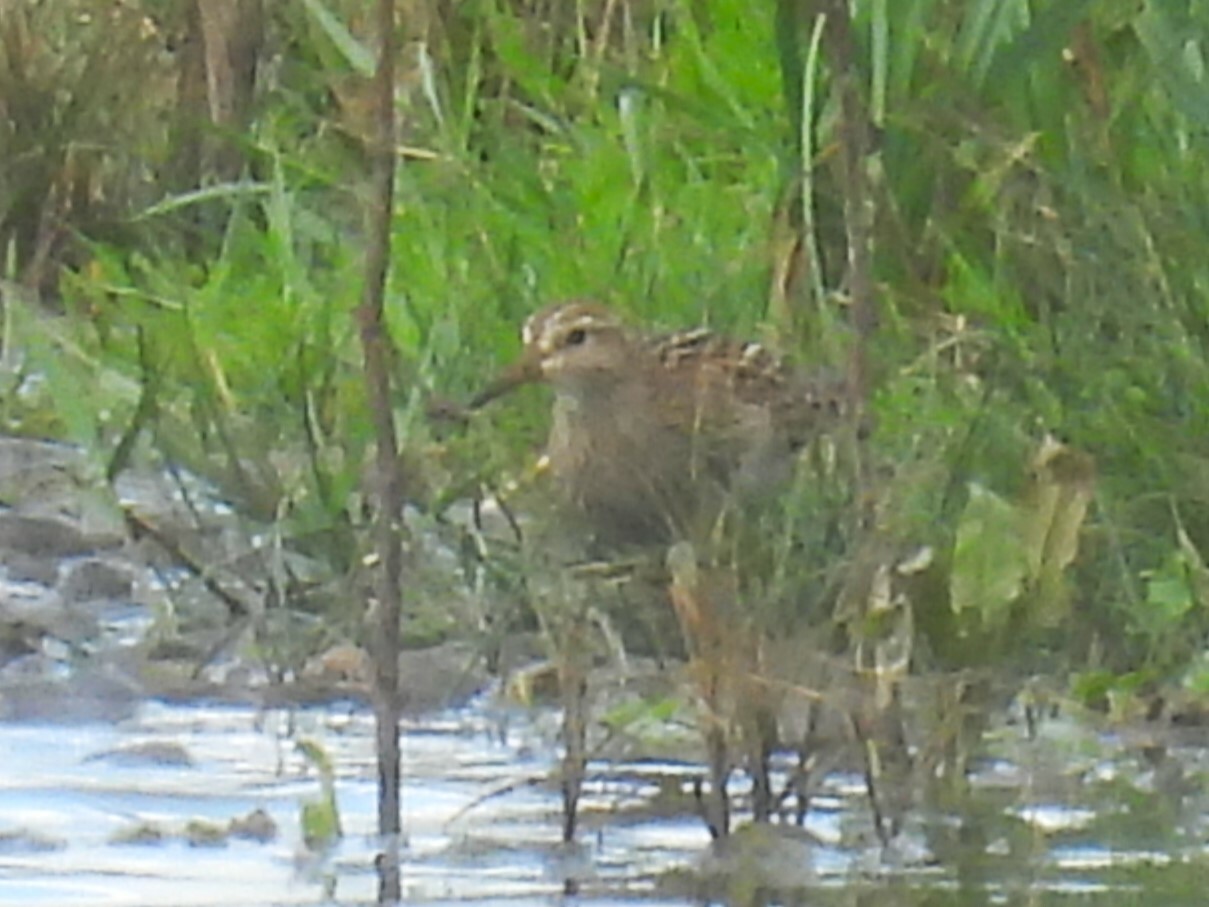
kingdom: Animalia
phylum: Chordata
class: Aves
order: Charadriiformes
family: Scolopacidae
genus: Calidris
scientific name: Calidris melanotos
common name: Pectoral sandpiper
